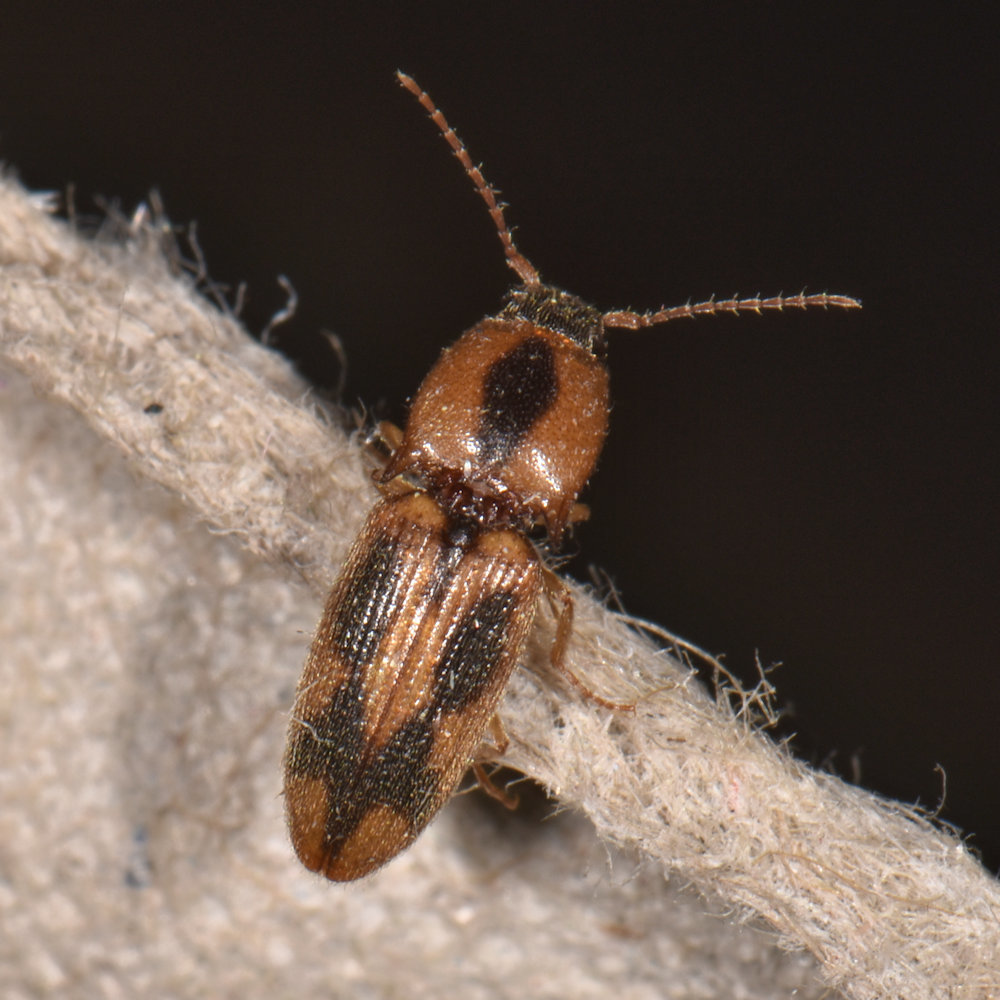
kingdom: Animalia
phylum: Arthropoda
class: Insecta
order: Coleoptera
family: Elateridae
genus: Aeolus
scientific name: Aeolus mellillus
